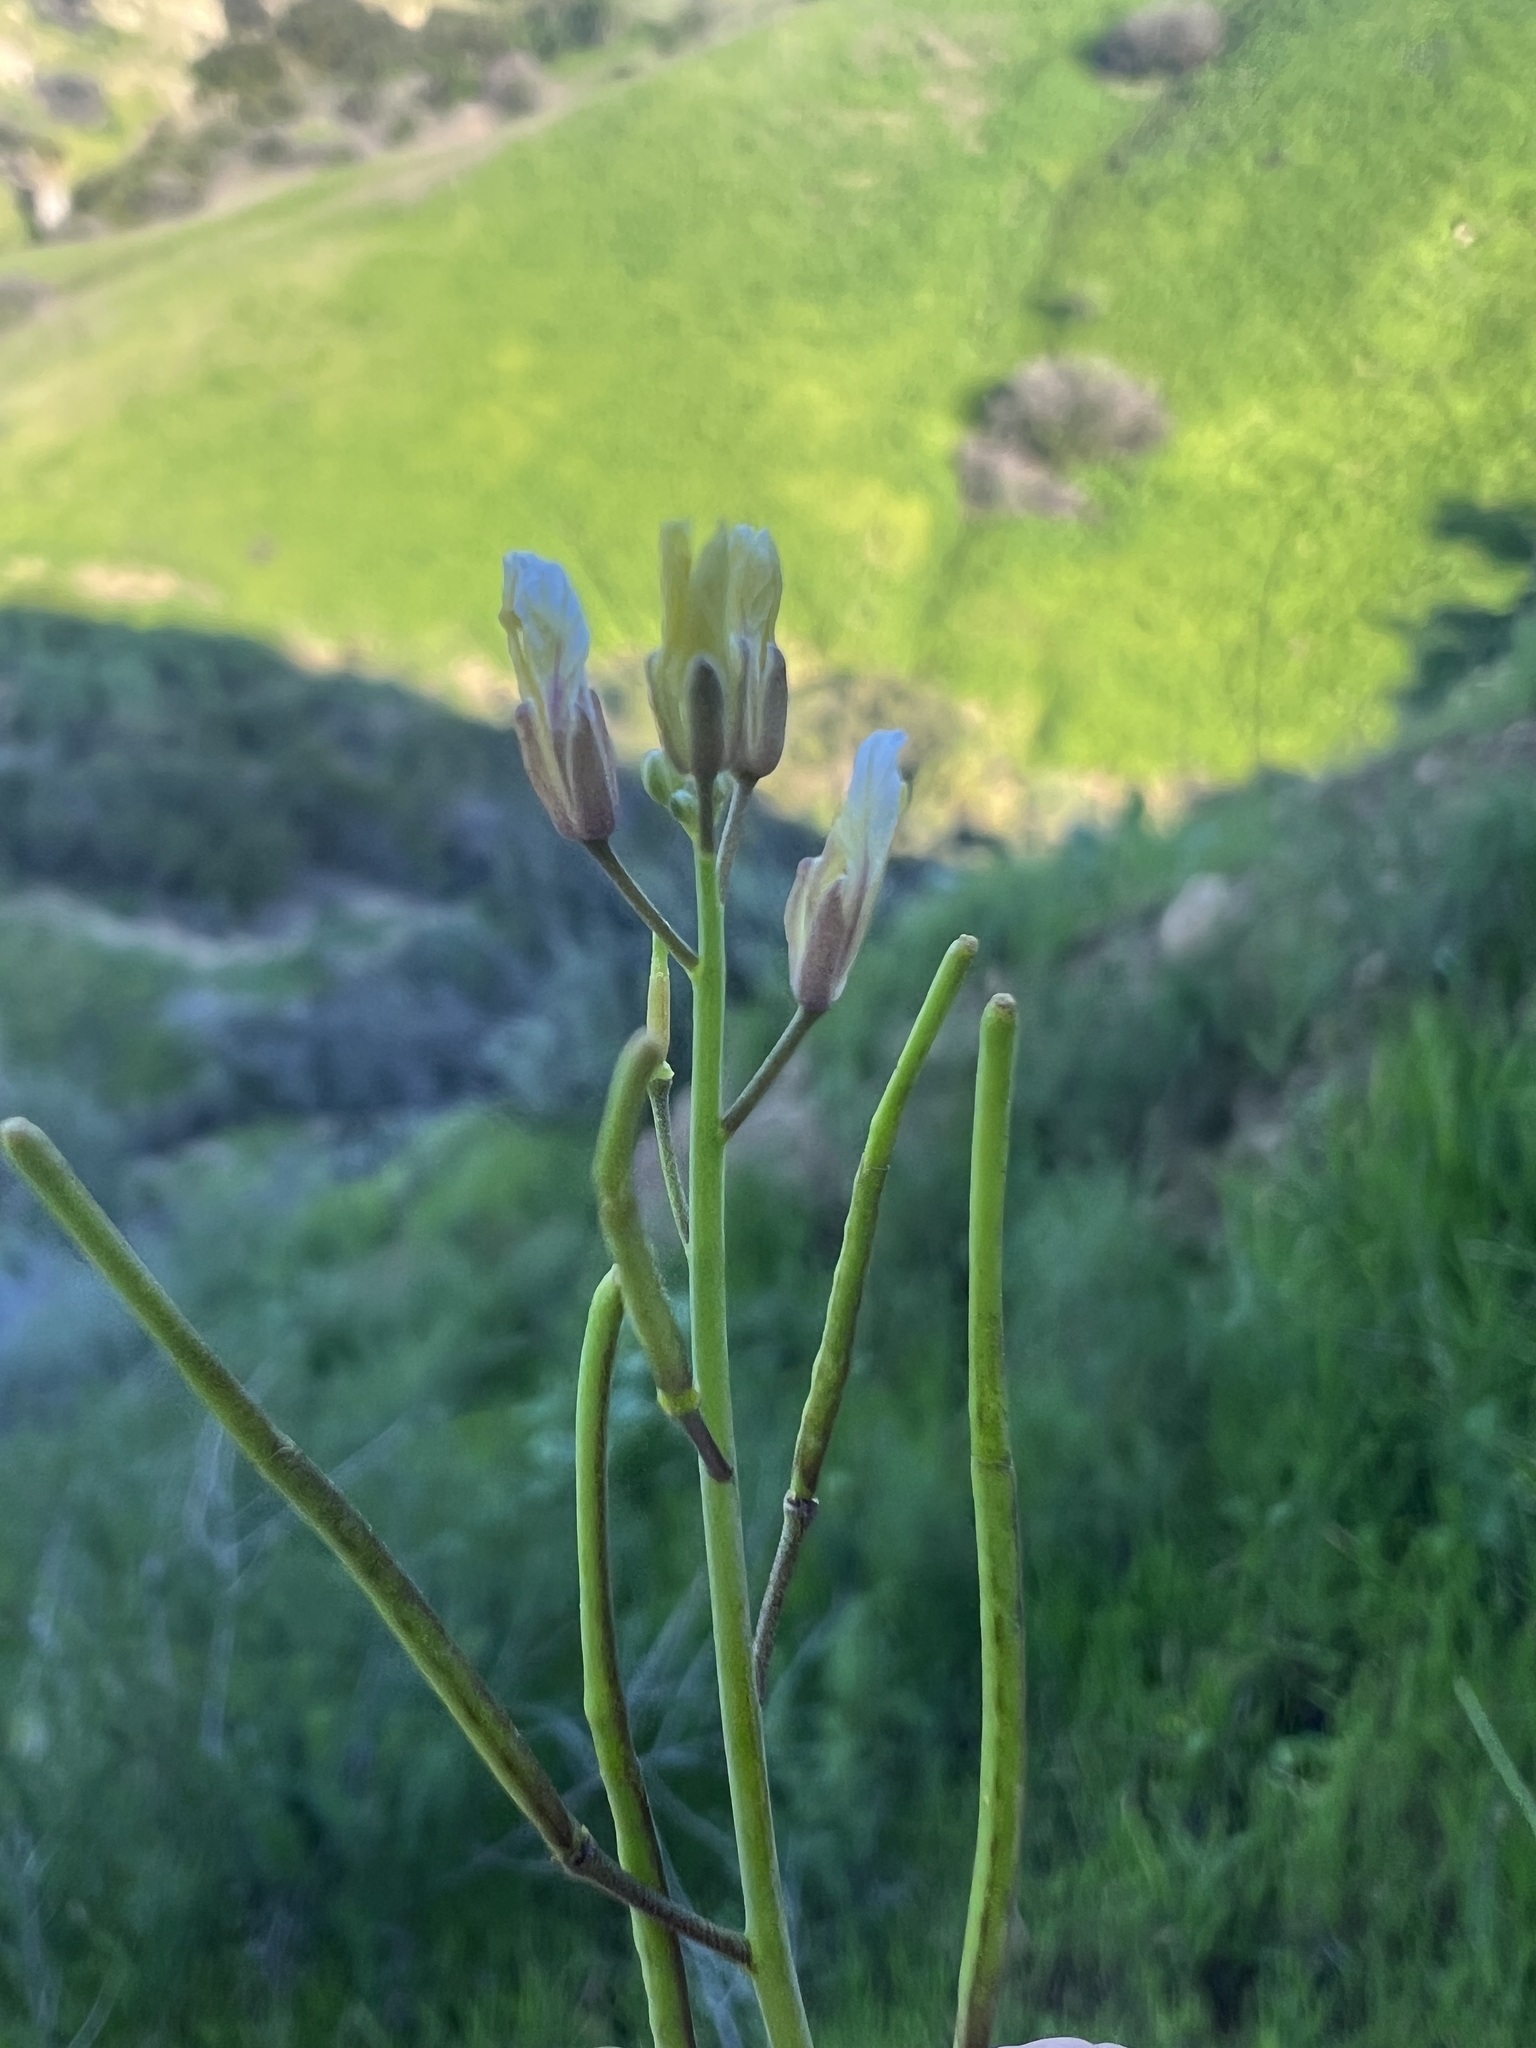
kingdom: Plantae
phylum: Tracheophyta
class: Magnoliopsida
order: Brassicales
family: Brassicaceae
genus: Brassica
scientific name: Brassica tournefortii
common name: Pale cabbage
